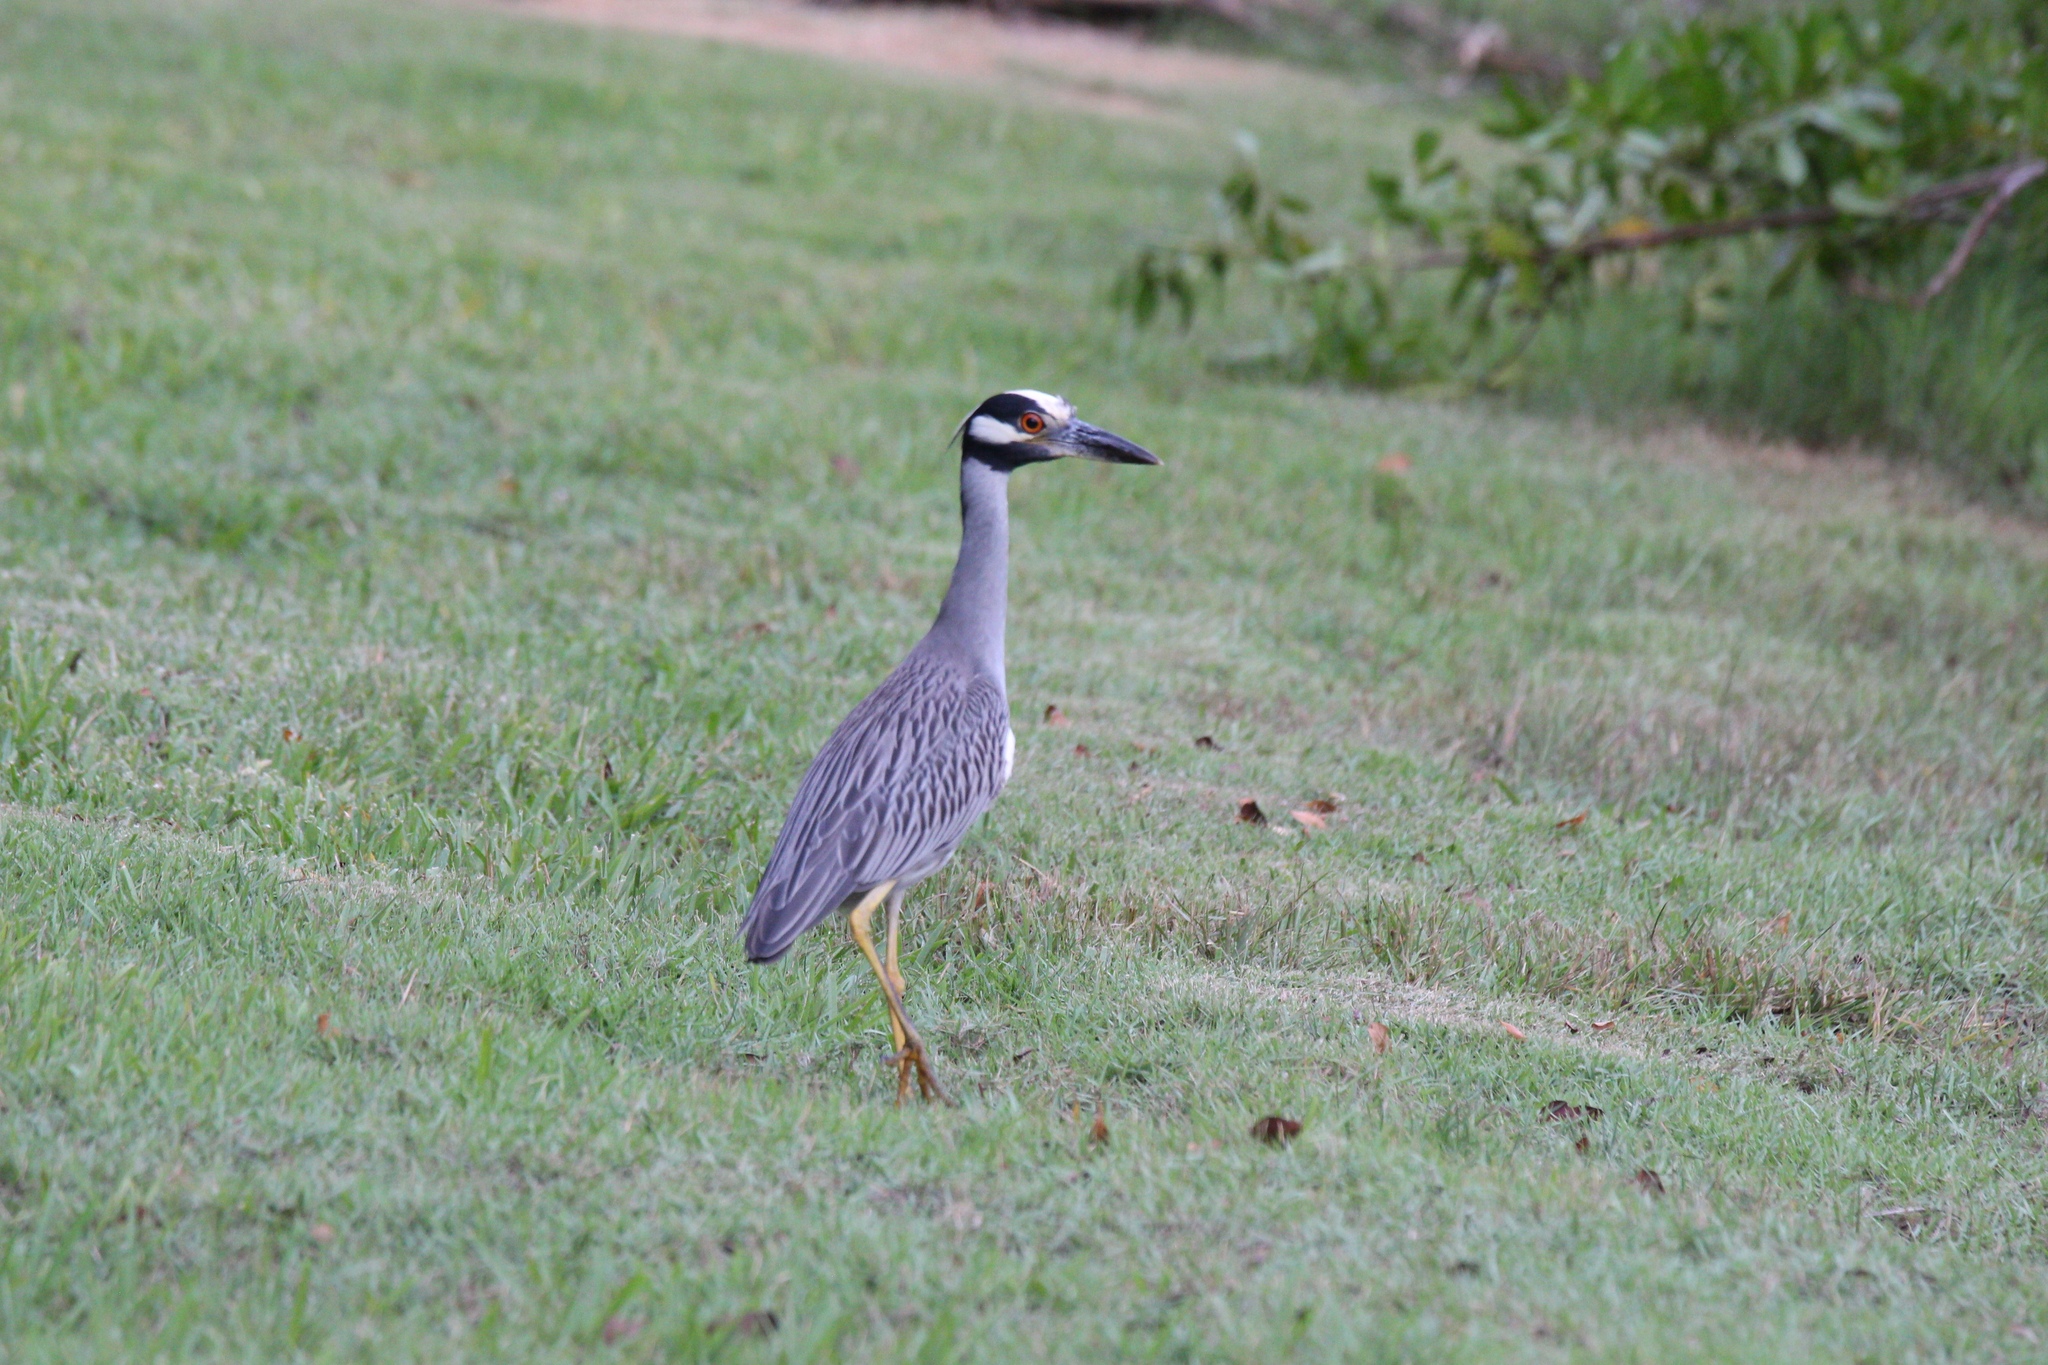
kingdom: Animalia
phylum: Chordata
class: Aves
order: Pelecaniformes
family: Ardeidae
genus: Nyctanassa
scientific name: Nyctanassa violacea
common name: Yellow-crowned night heron
